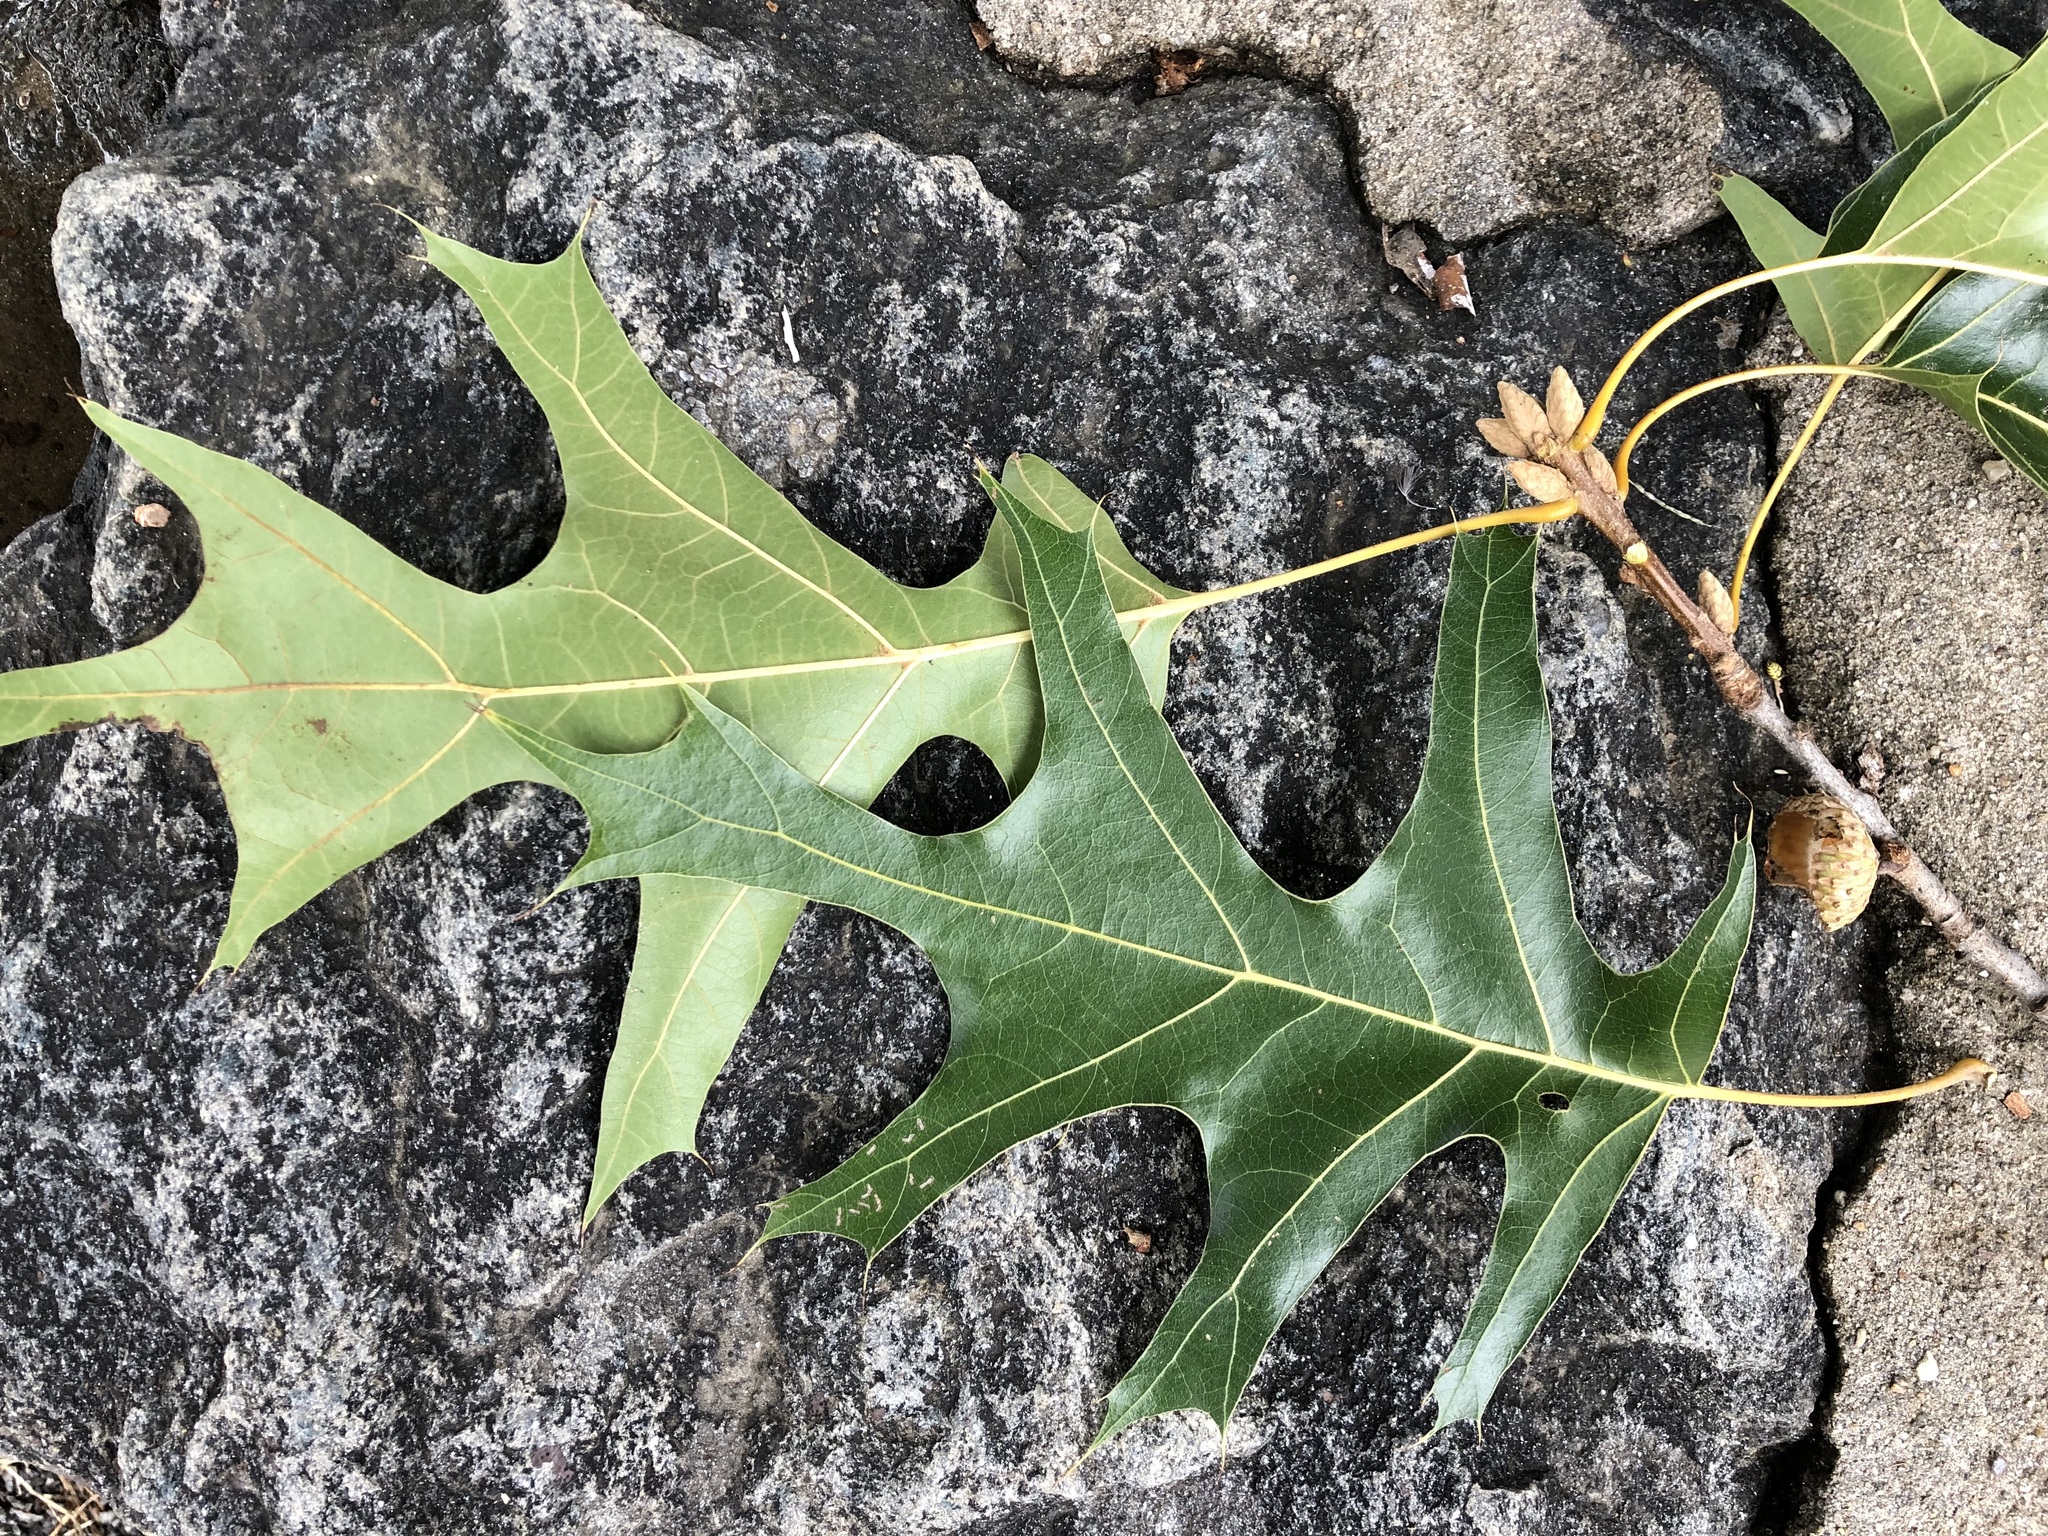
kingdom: Plantae
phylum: Tracheophyta
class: Magnoliopsida
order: Fagales
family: Fagaceae
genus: Quercus
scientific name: Quercus velutina
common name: Black oak
